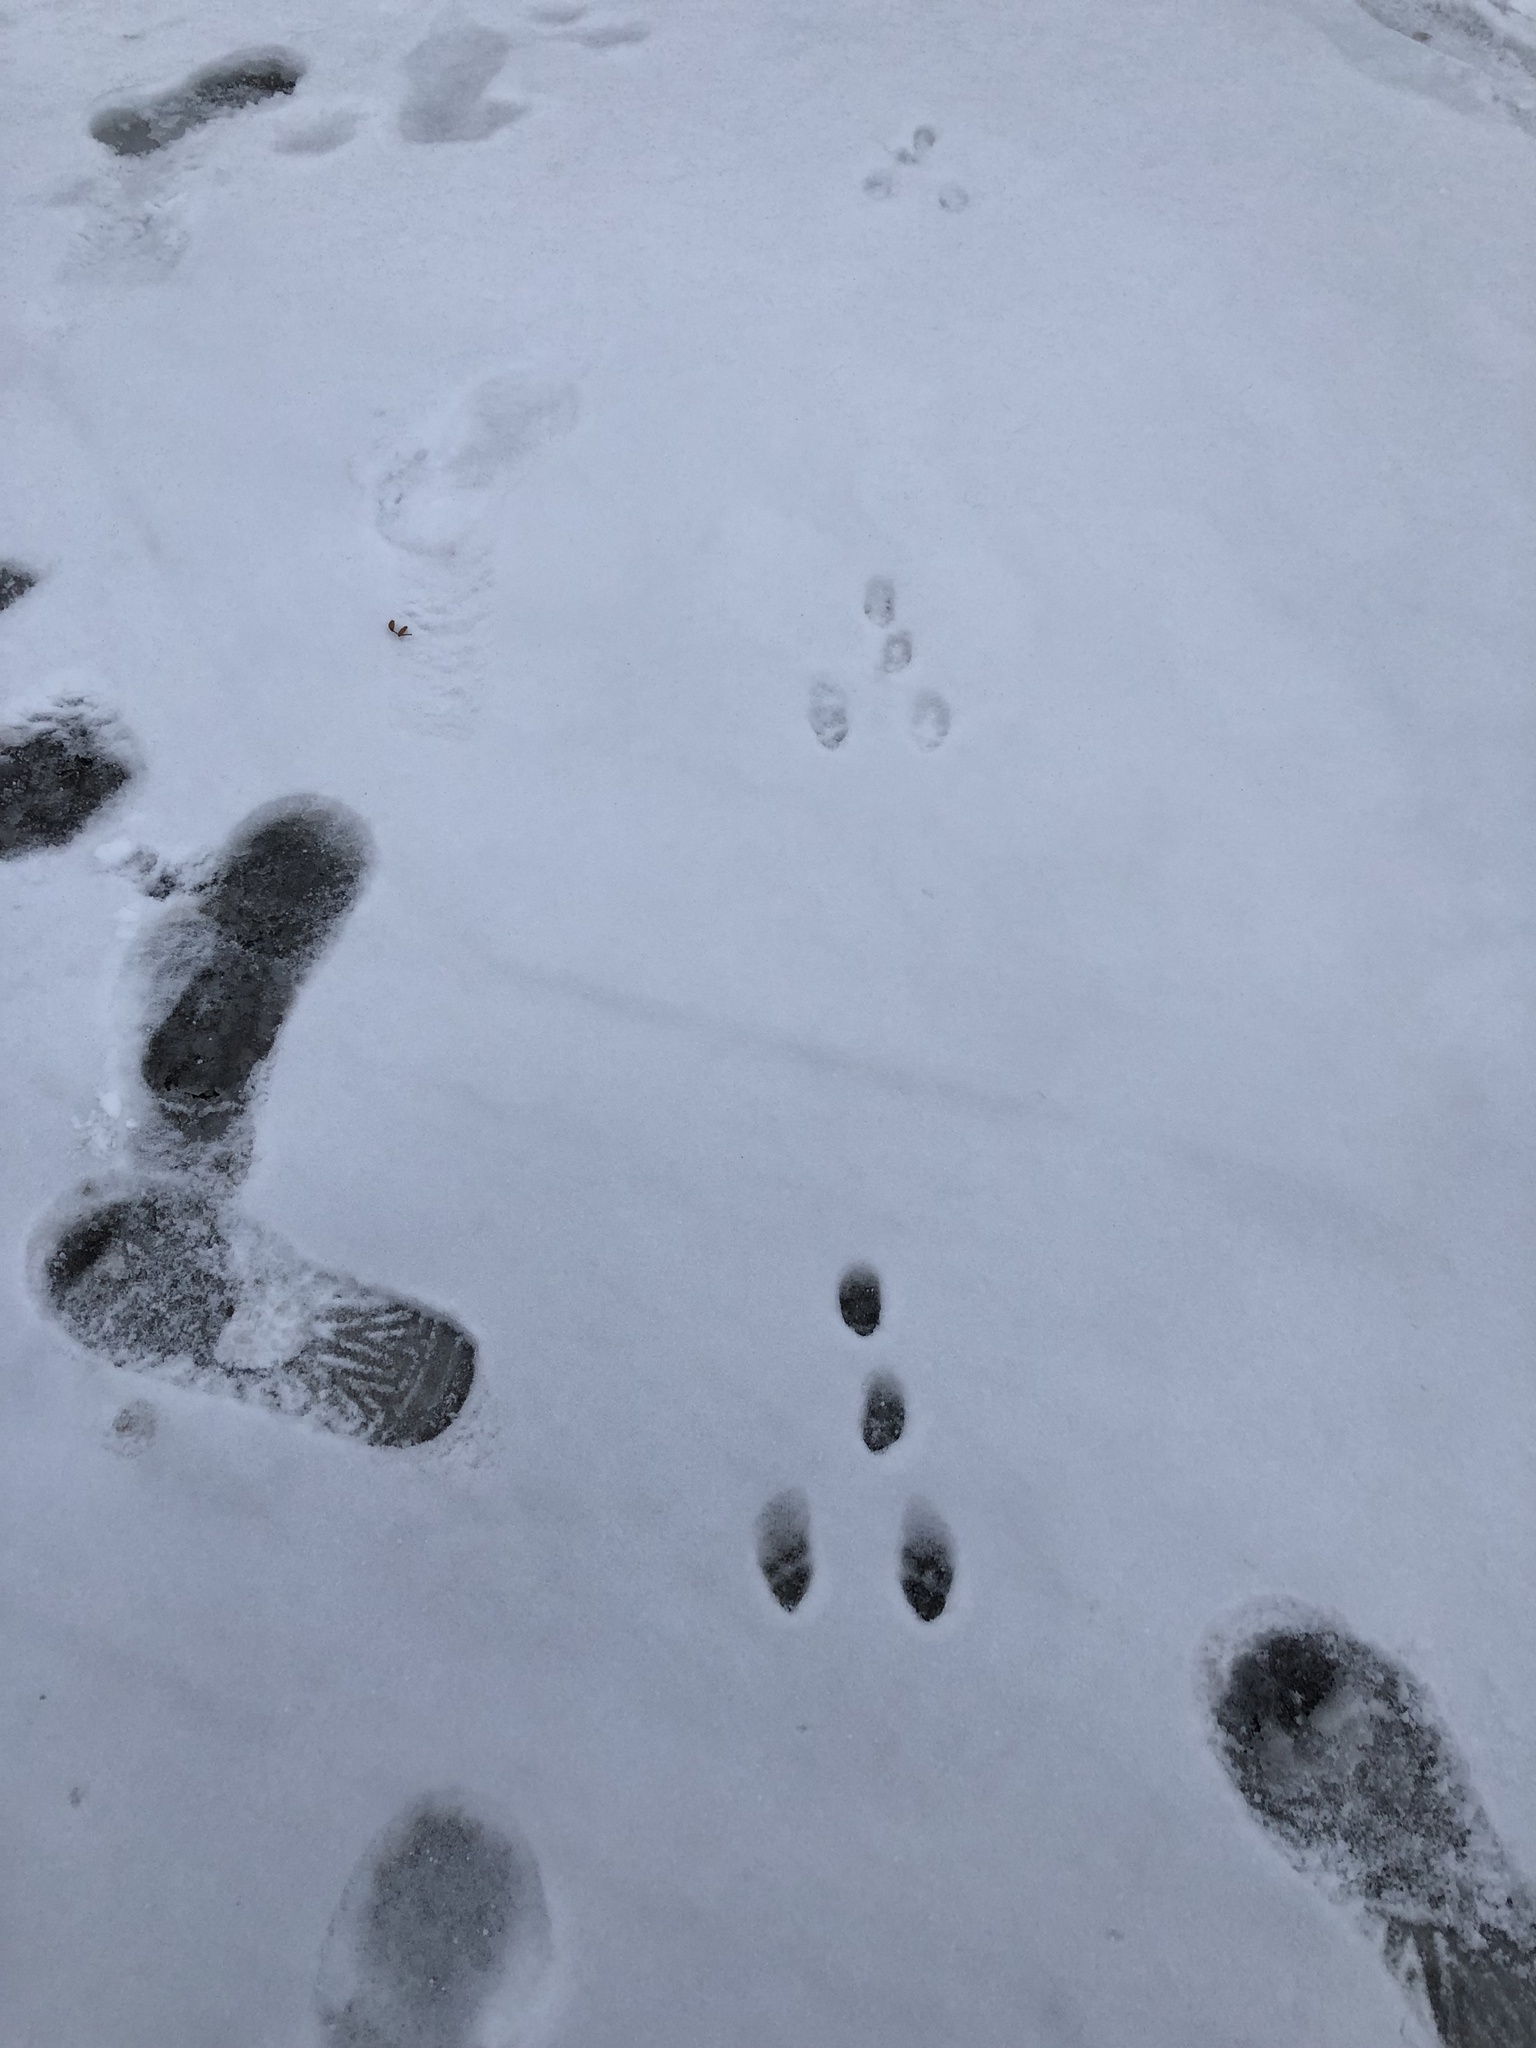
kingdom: Animalia
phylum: Chordata
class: Mammalia
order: Lagomorpha
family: Leporidae
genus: Sylvilagus
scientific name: Sylvilagus floridanus
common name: Eastern cottontail
